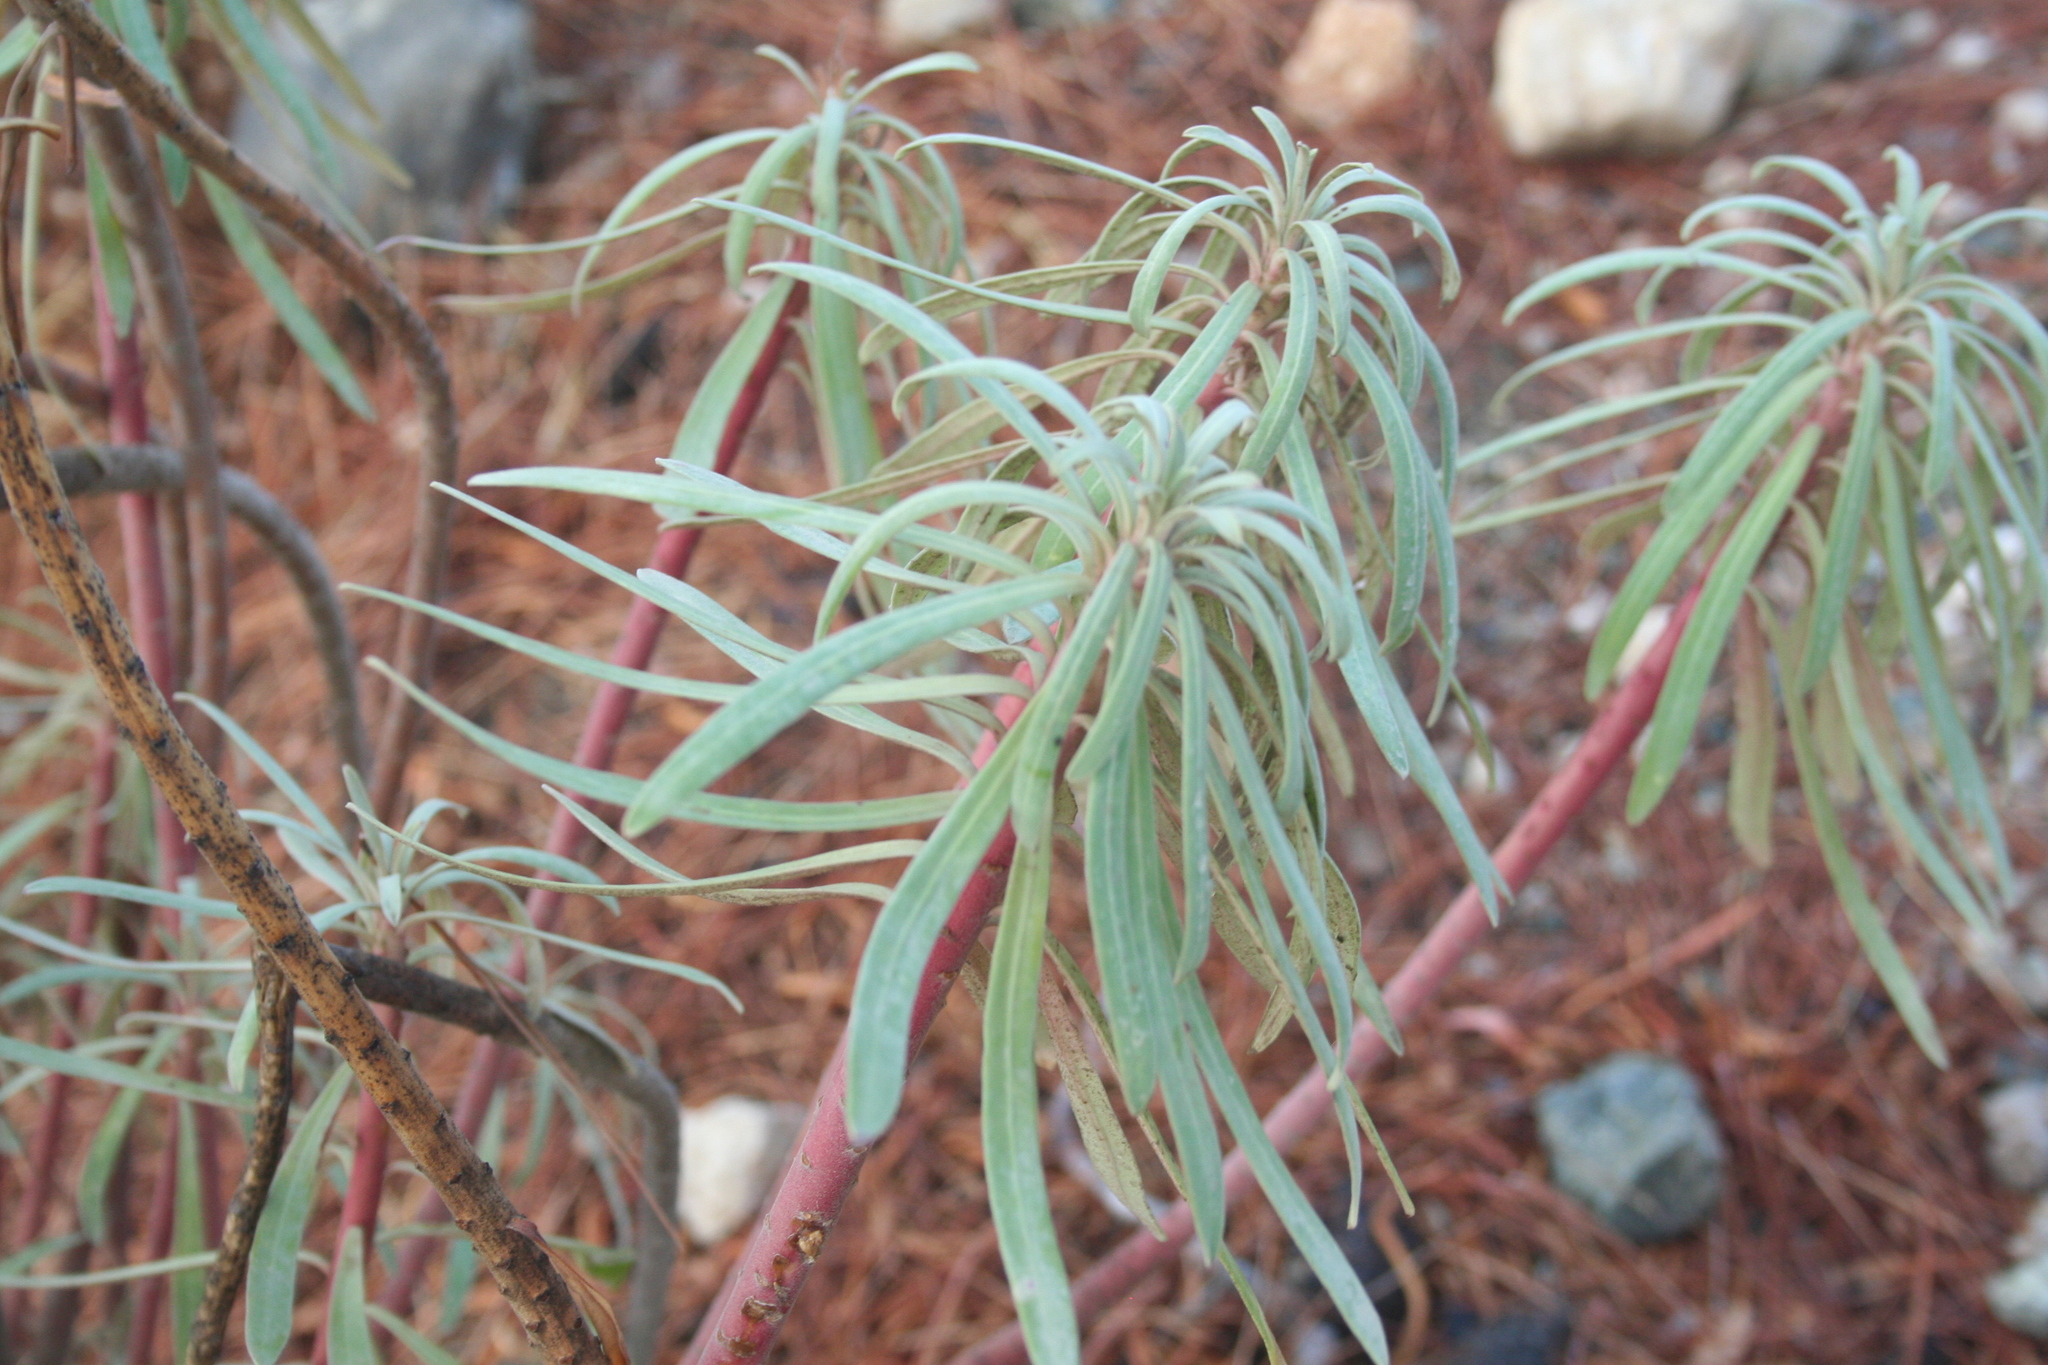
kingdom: Plantae
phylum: Tracheophyta
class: Magnoliopsida
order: Malpighiales
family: Euphorbiaceae
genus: Euphorbia
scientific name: Euphorbia characias
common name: Mediterranean spurge
